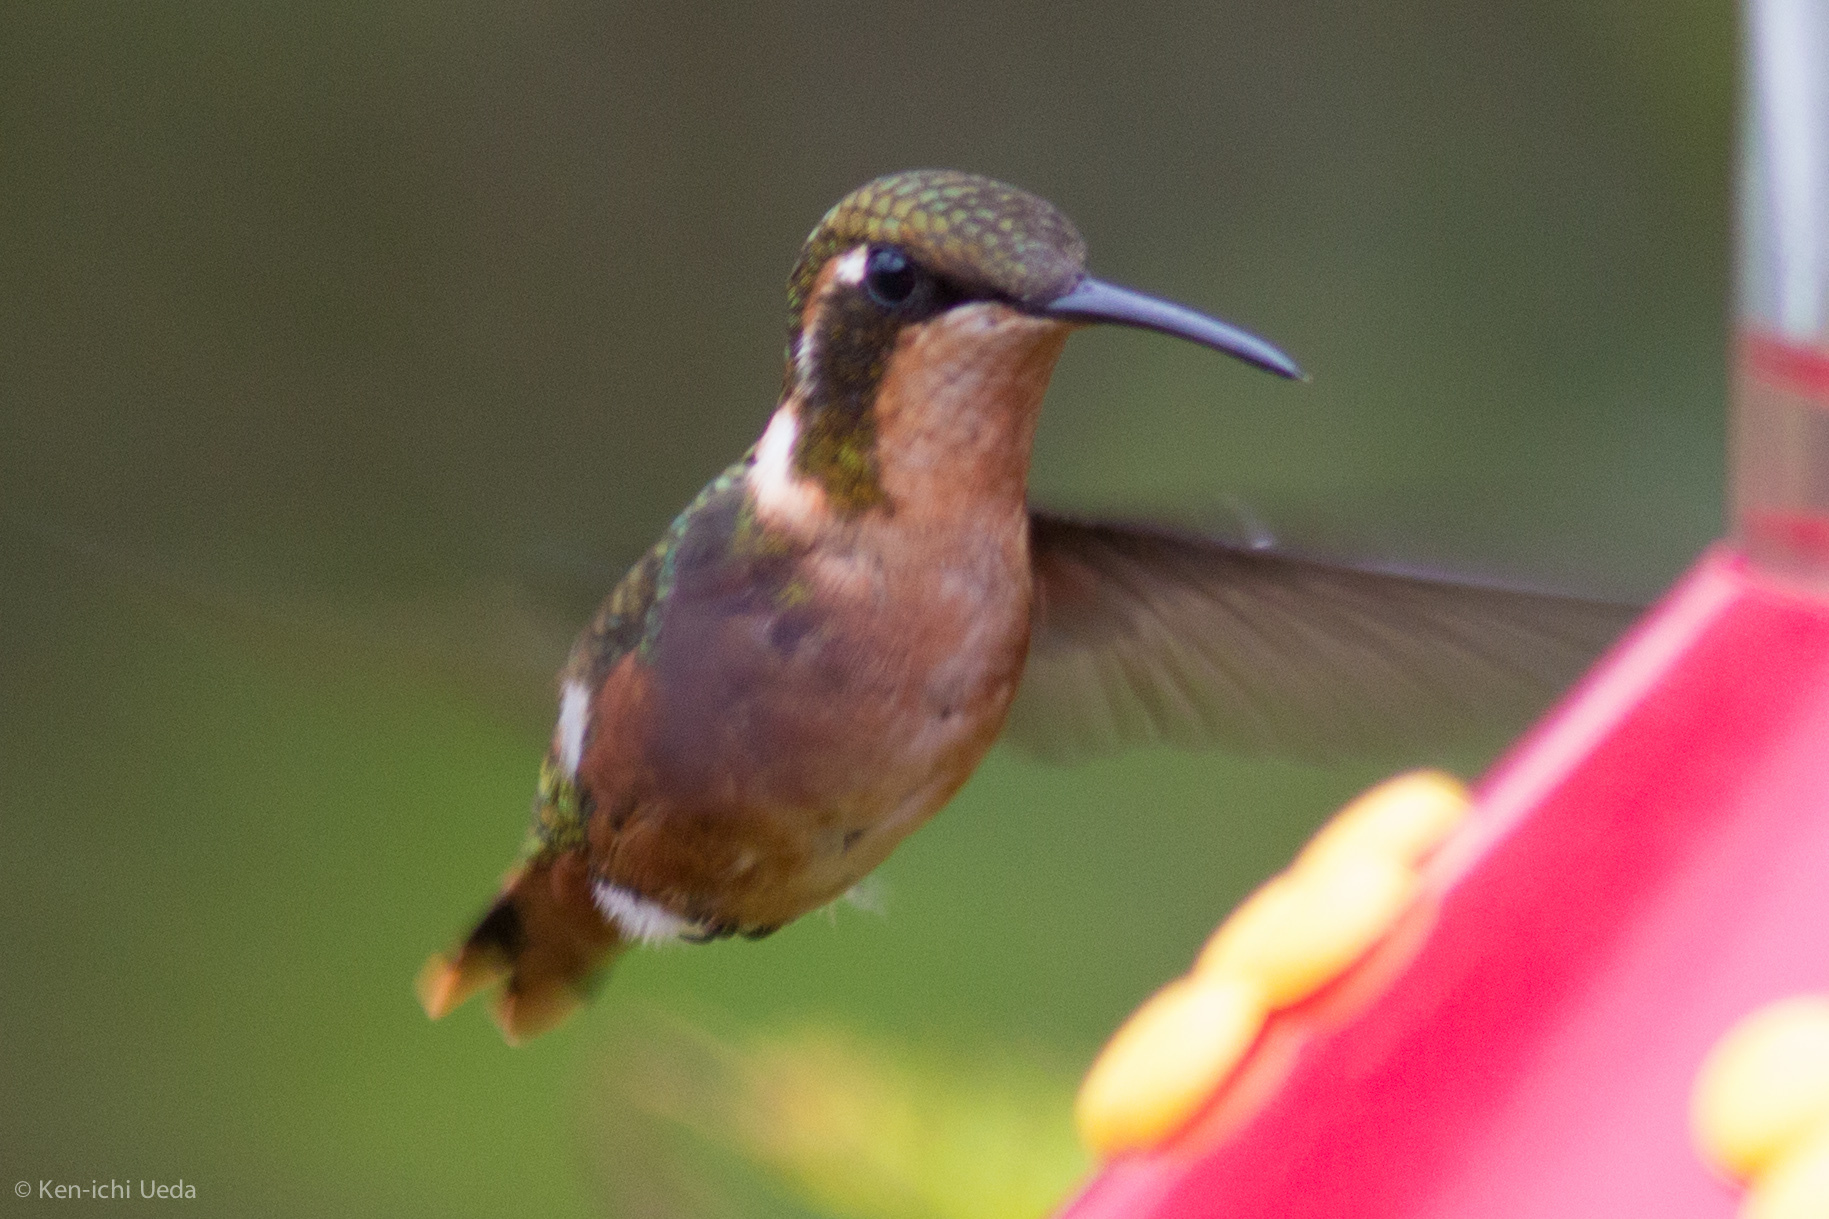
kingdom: Animalia
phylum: Chordata
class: Aves
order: Apodiformes
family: Trochilidae
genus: Chaetocercus
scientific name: Chaetocercus heliodor
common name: Gorgeted woodstar
